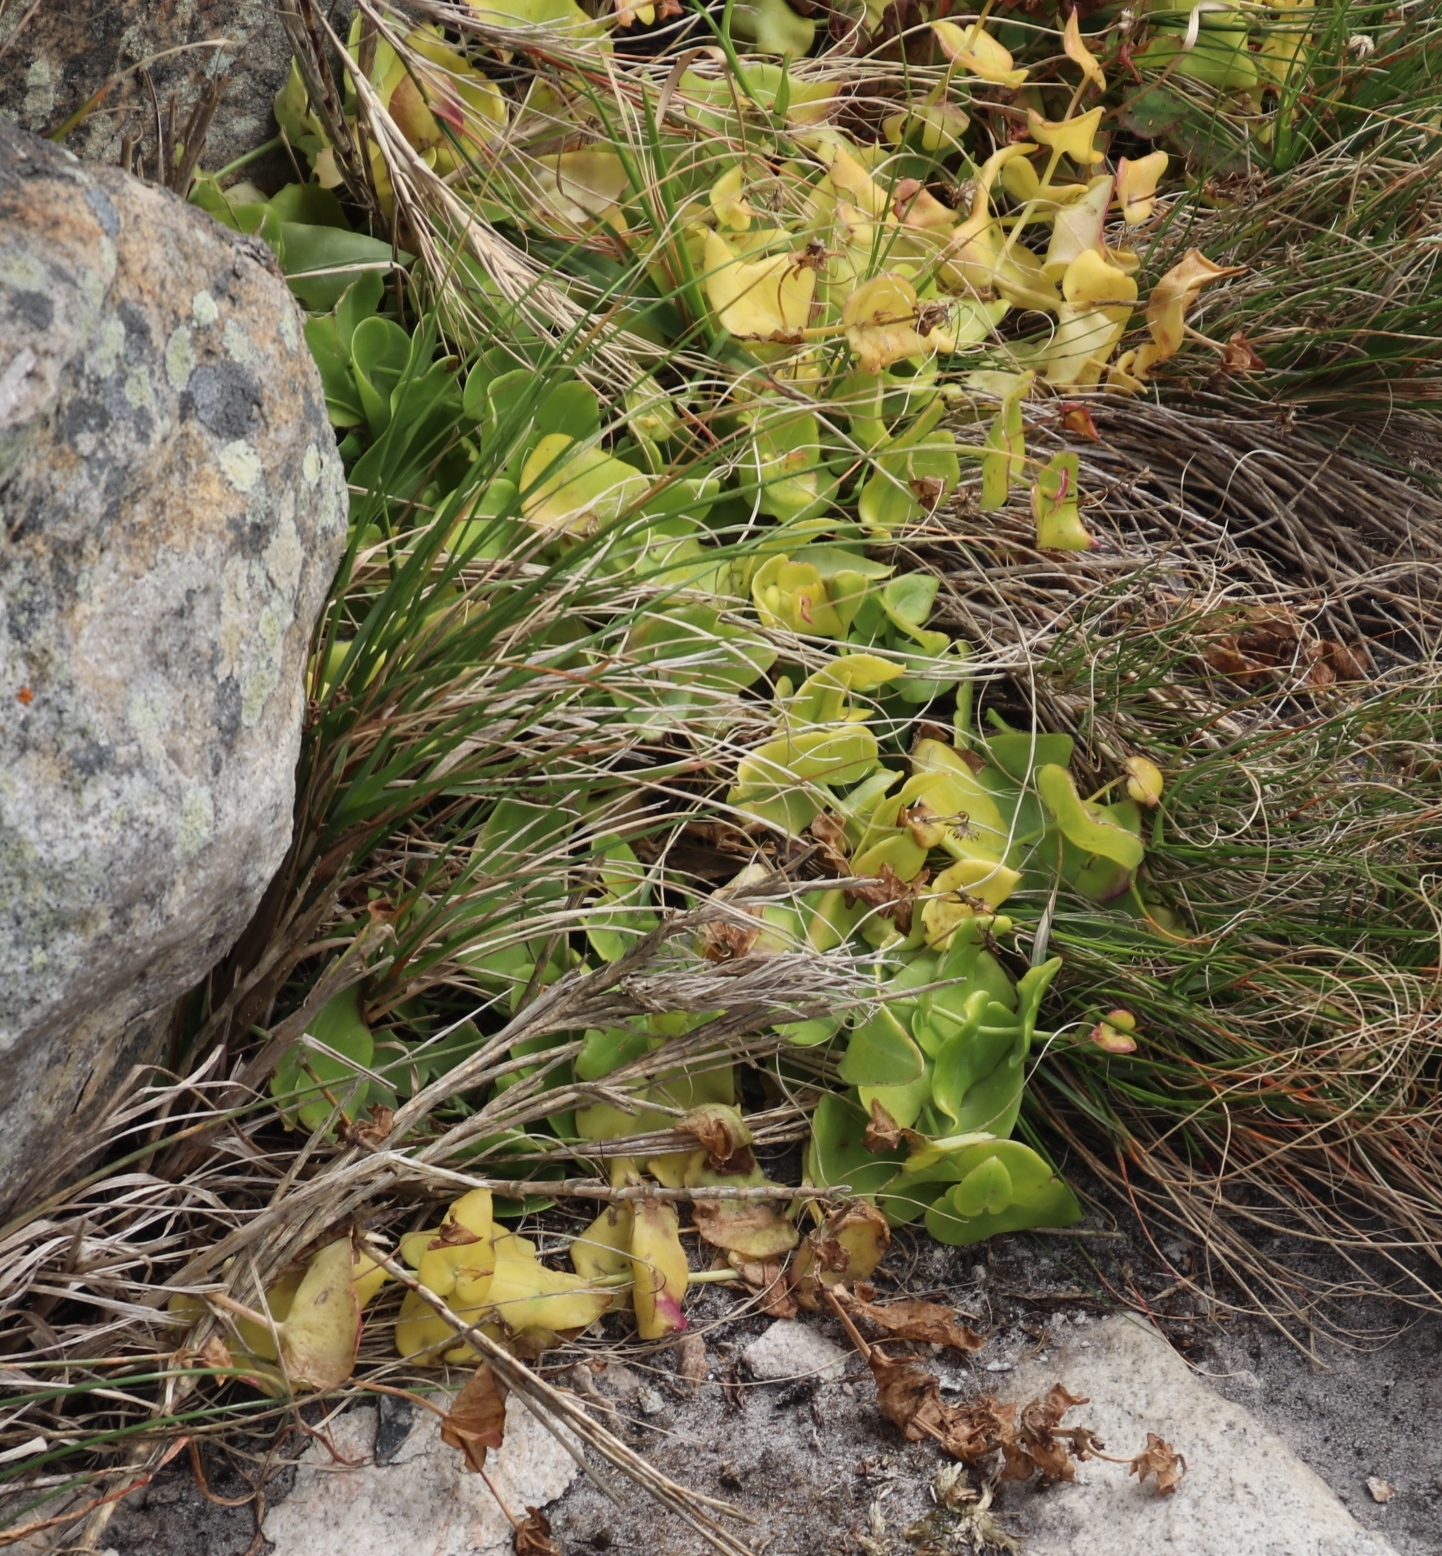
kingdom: Plantae
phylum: Tracheophyta
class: Magnoliopsida
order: Asterales
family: Asteraceae
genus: Othonna
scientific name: Othonna undulosa
